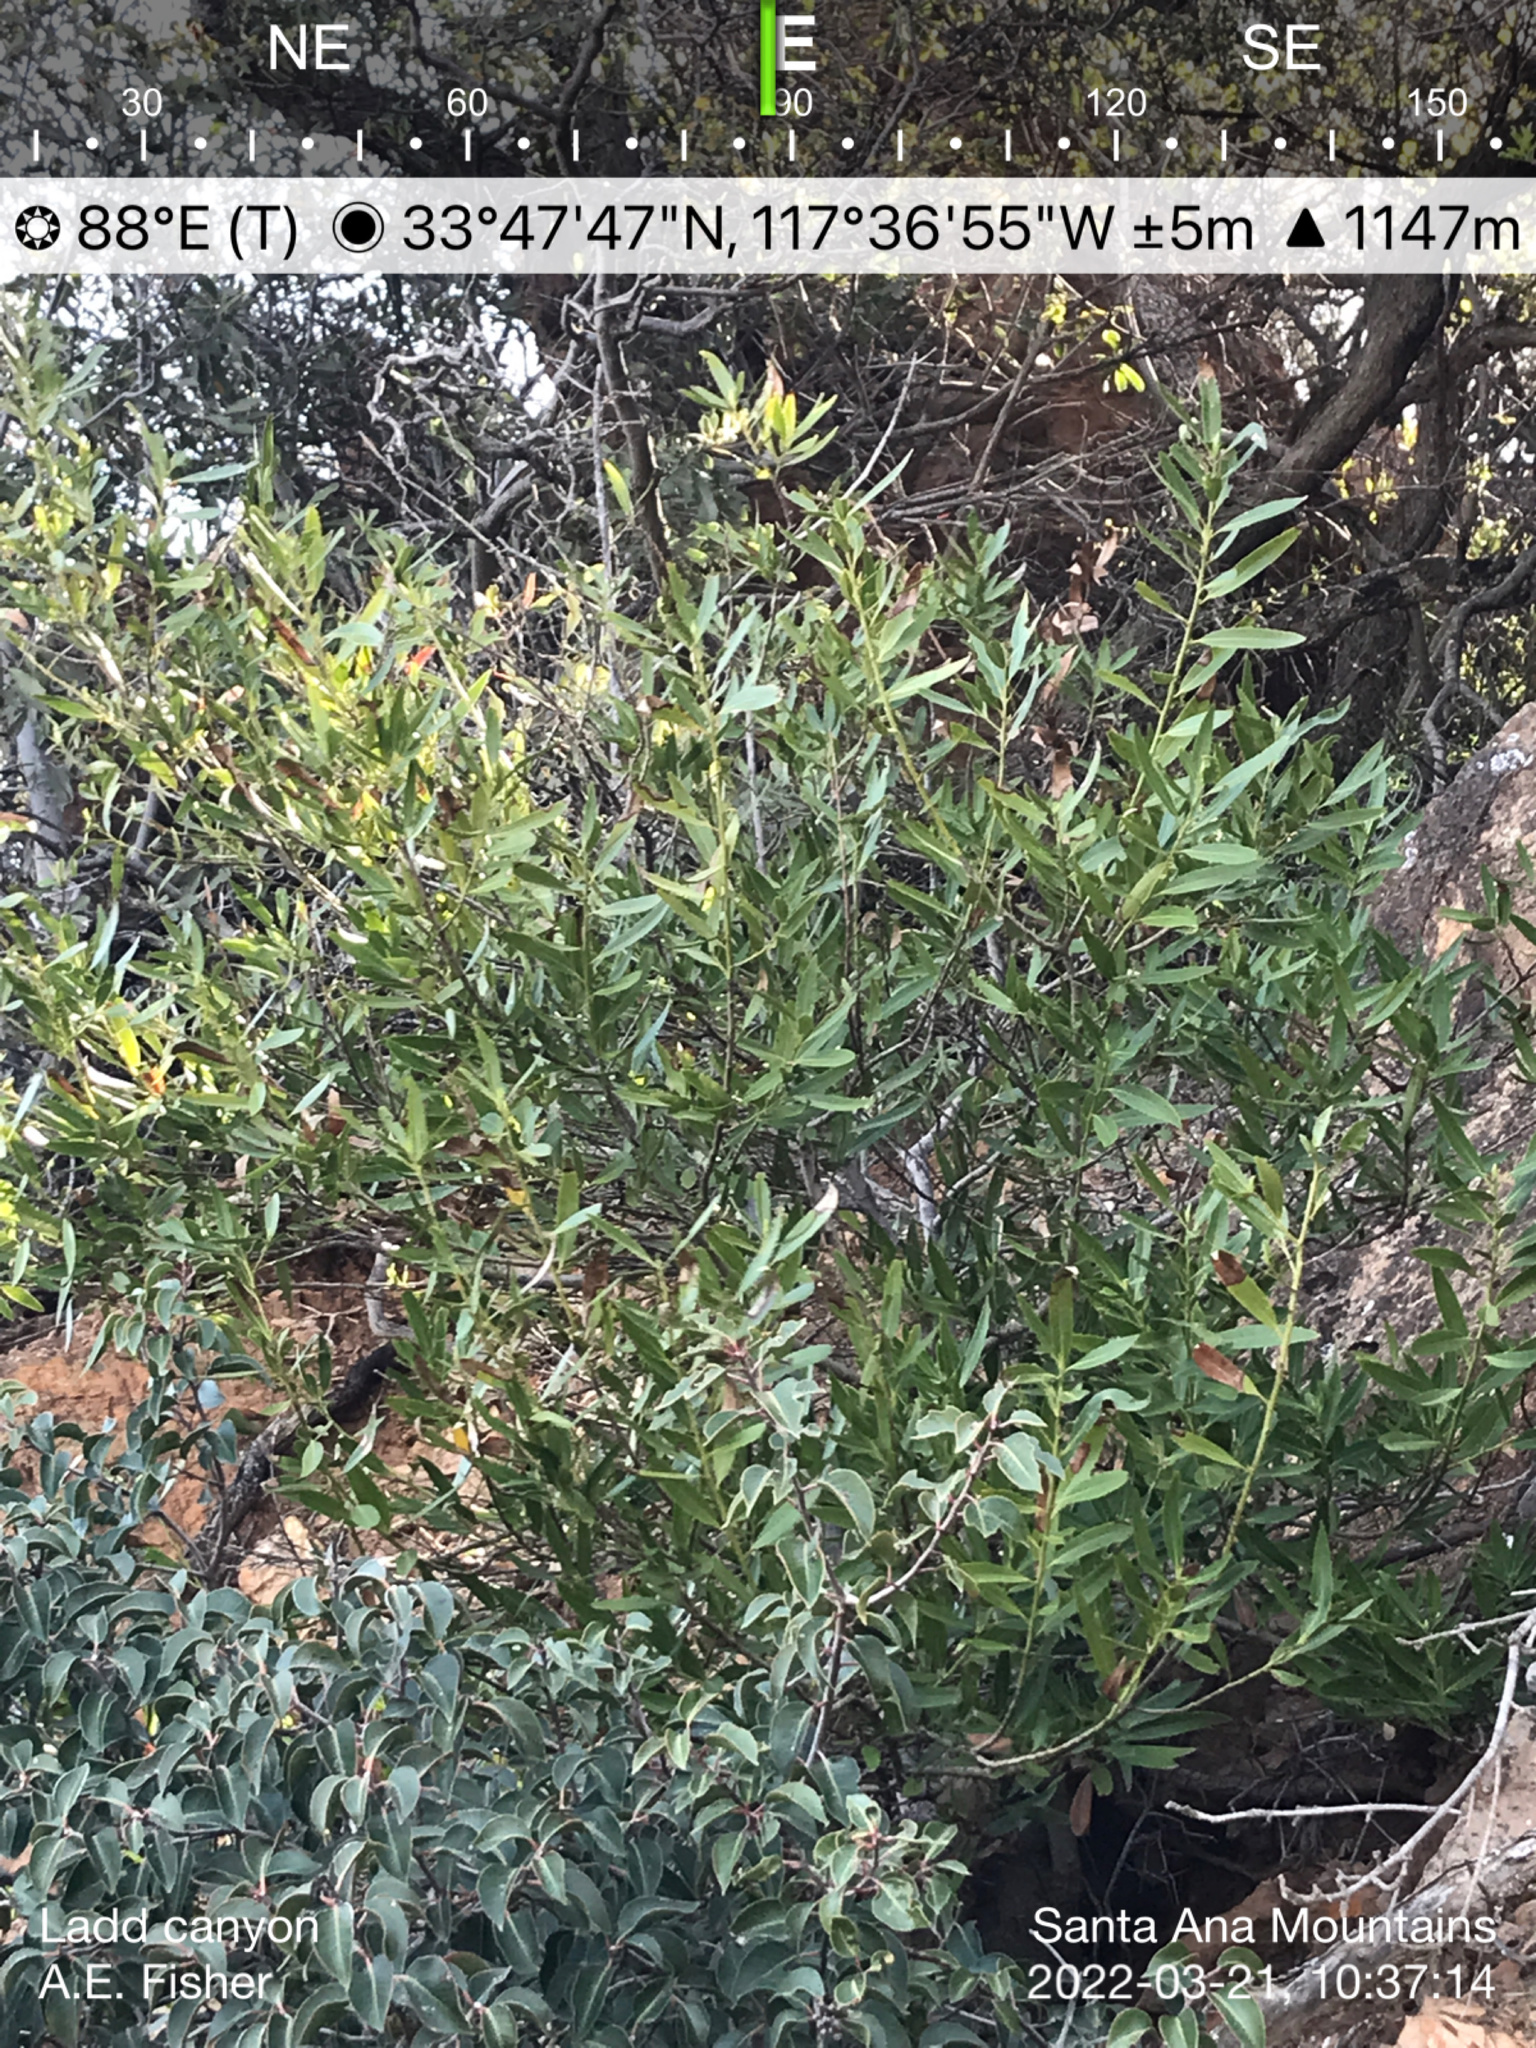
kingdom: Plantae
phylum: Tracheophyta
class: Magnoliopsida
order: Laurales
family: Lauraceae
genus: Umbellularia
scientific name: Umbellularia californica
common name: California bay
